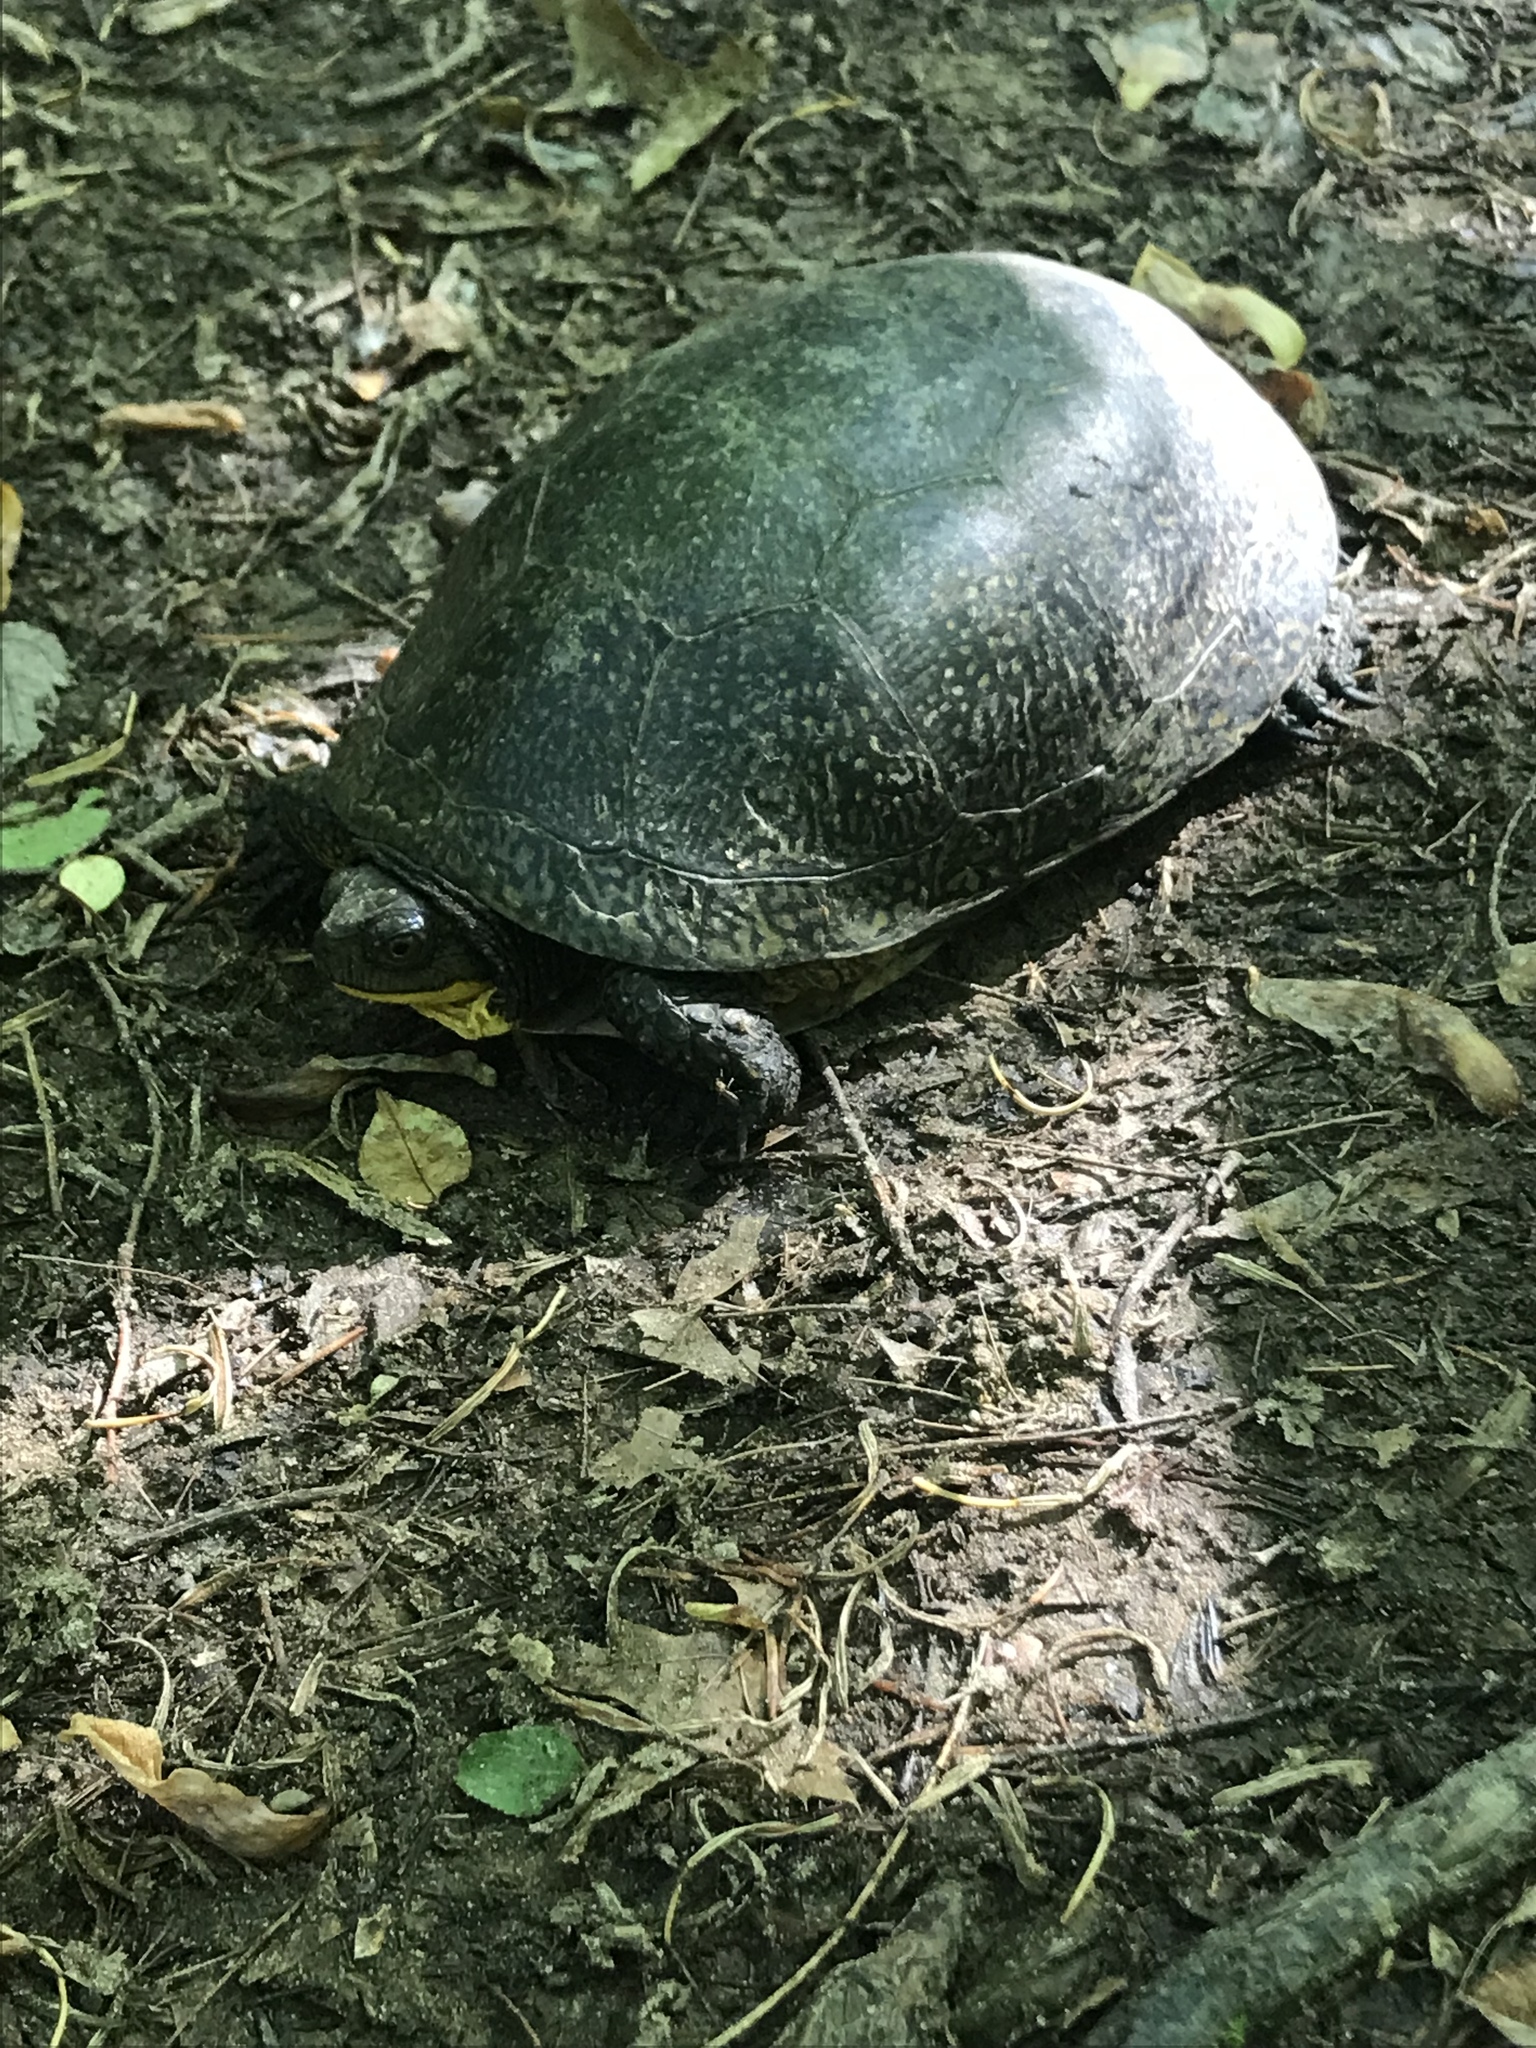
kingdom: Animalia
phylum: Chordata
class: Testudines
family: Emydidae
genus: Emys
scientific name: Emys blandingii
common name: Blanding's turtle
